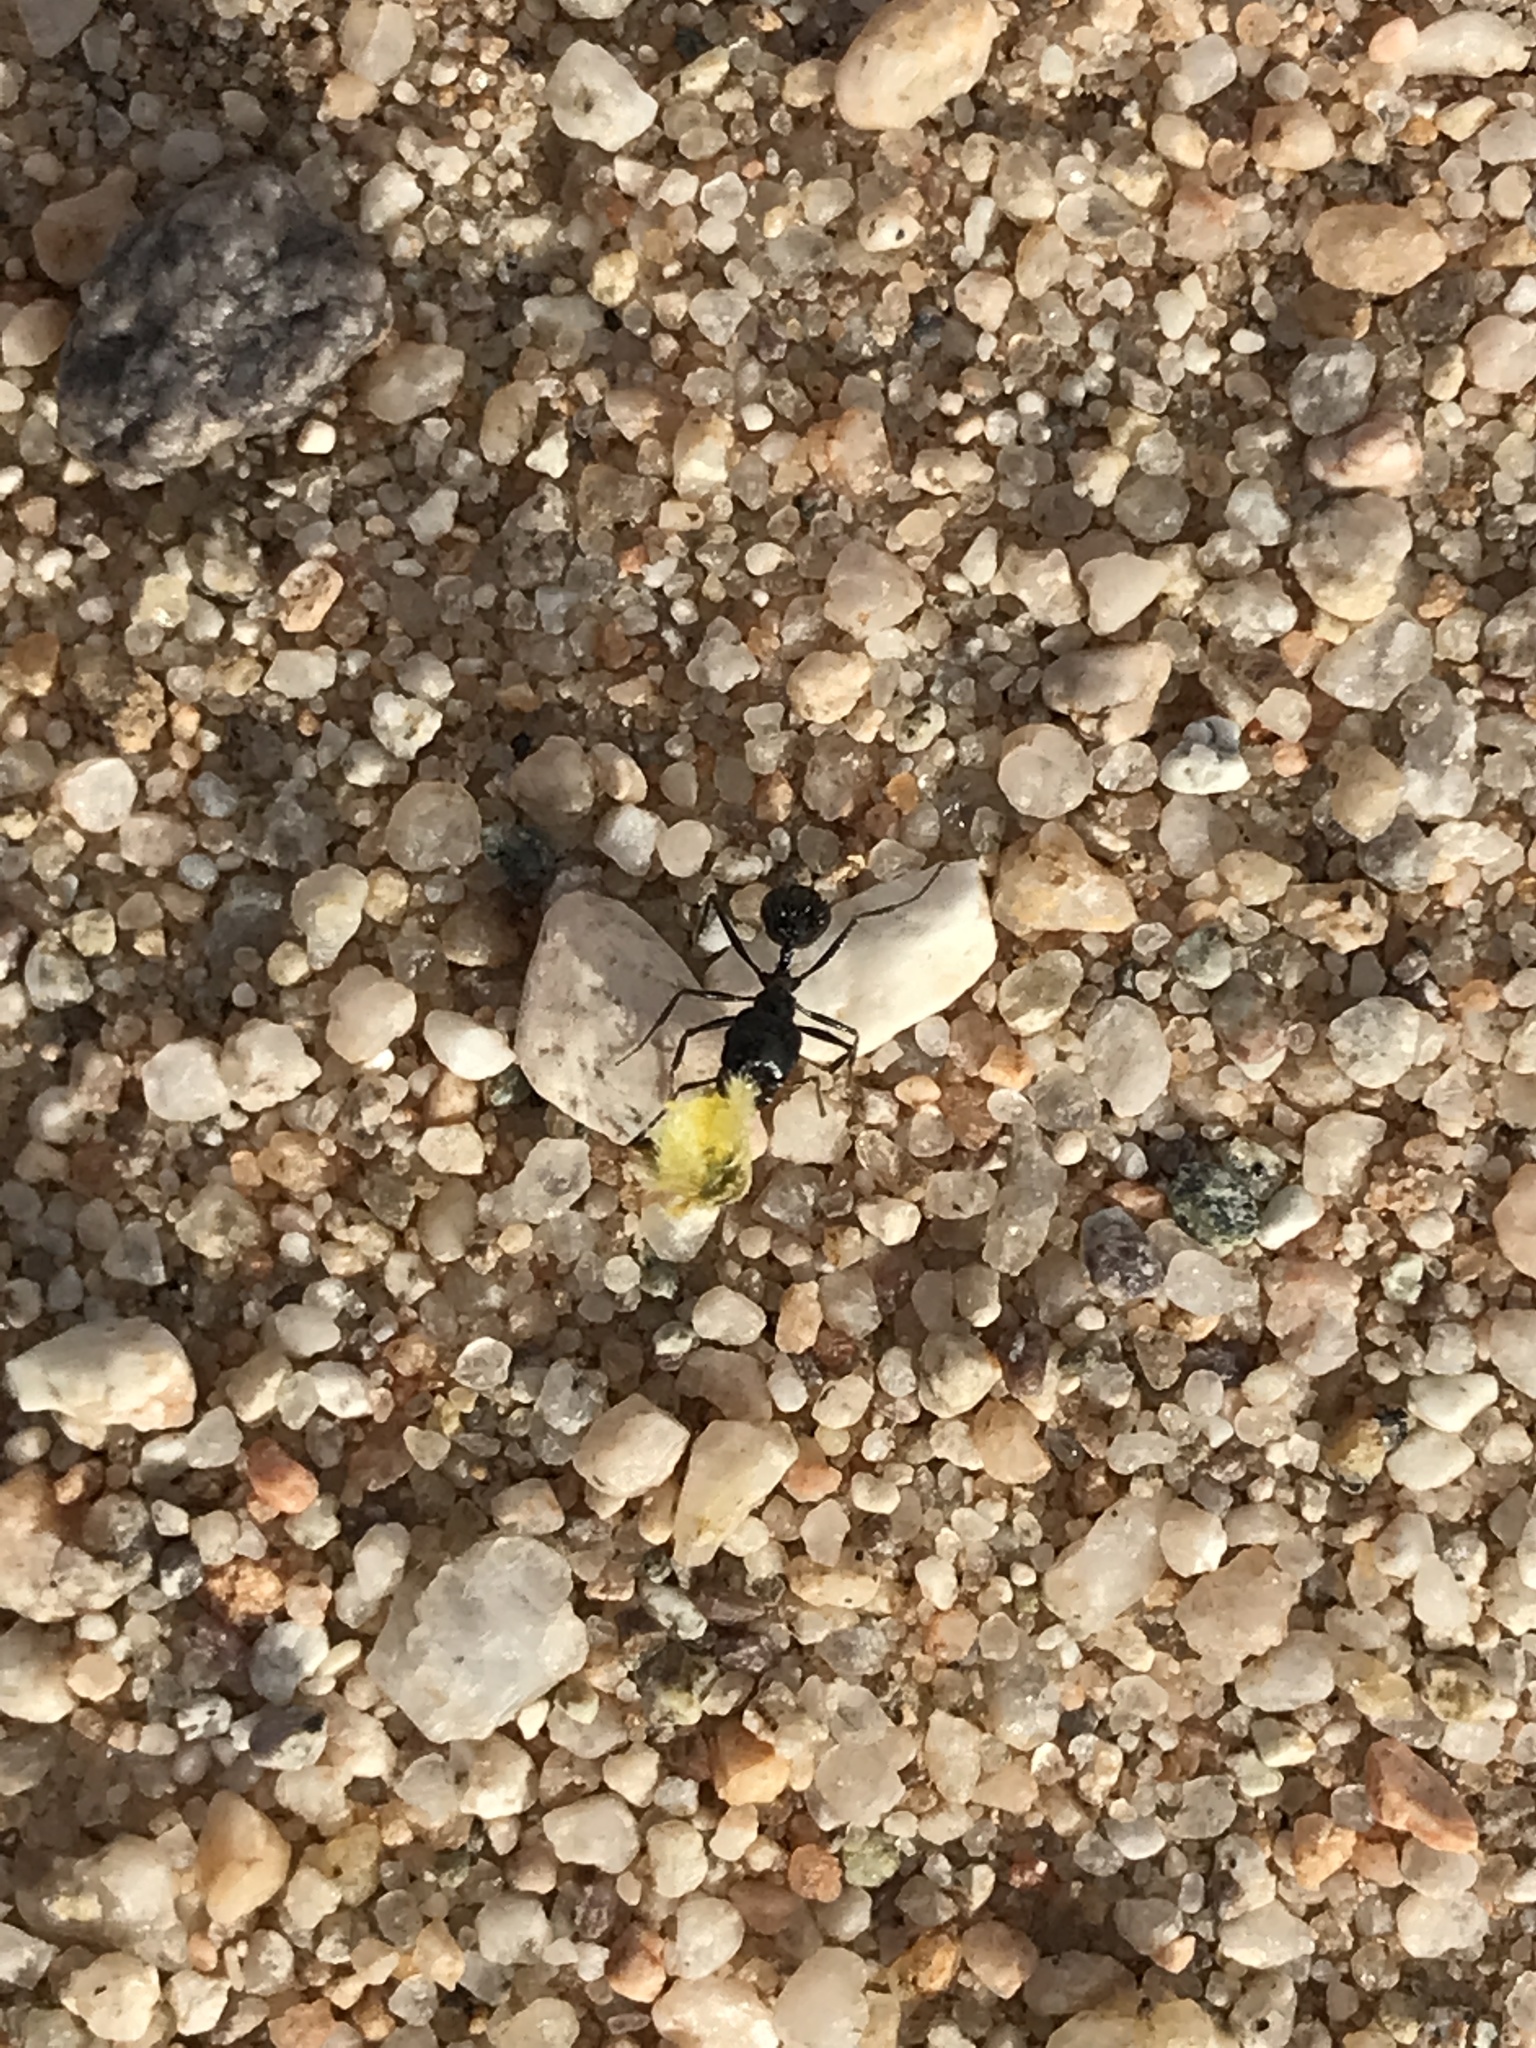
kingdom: Animalia
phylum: Arthropoda
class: Insecta
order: Hymenoptera
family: Formicidae
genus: Messor
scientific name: Messor pergandei
